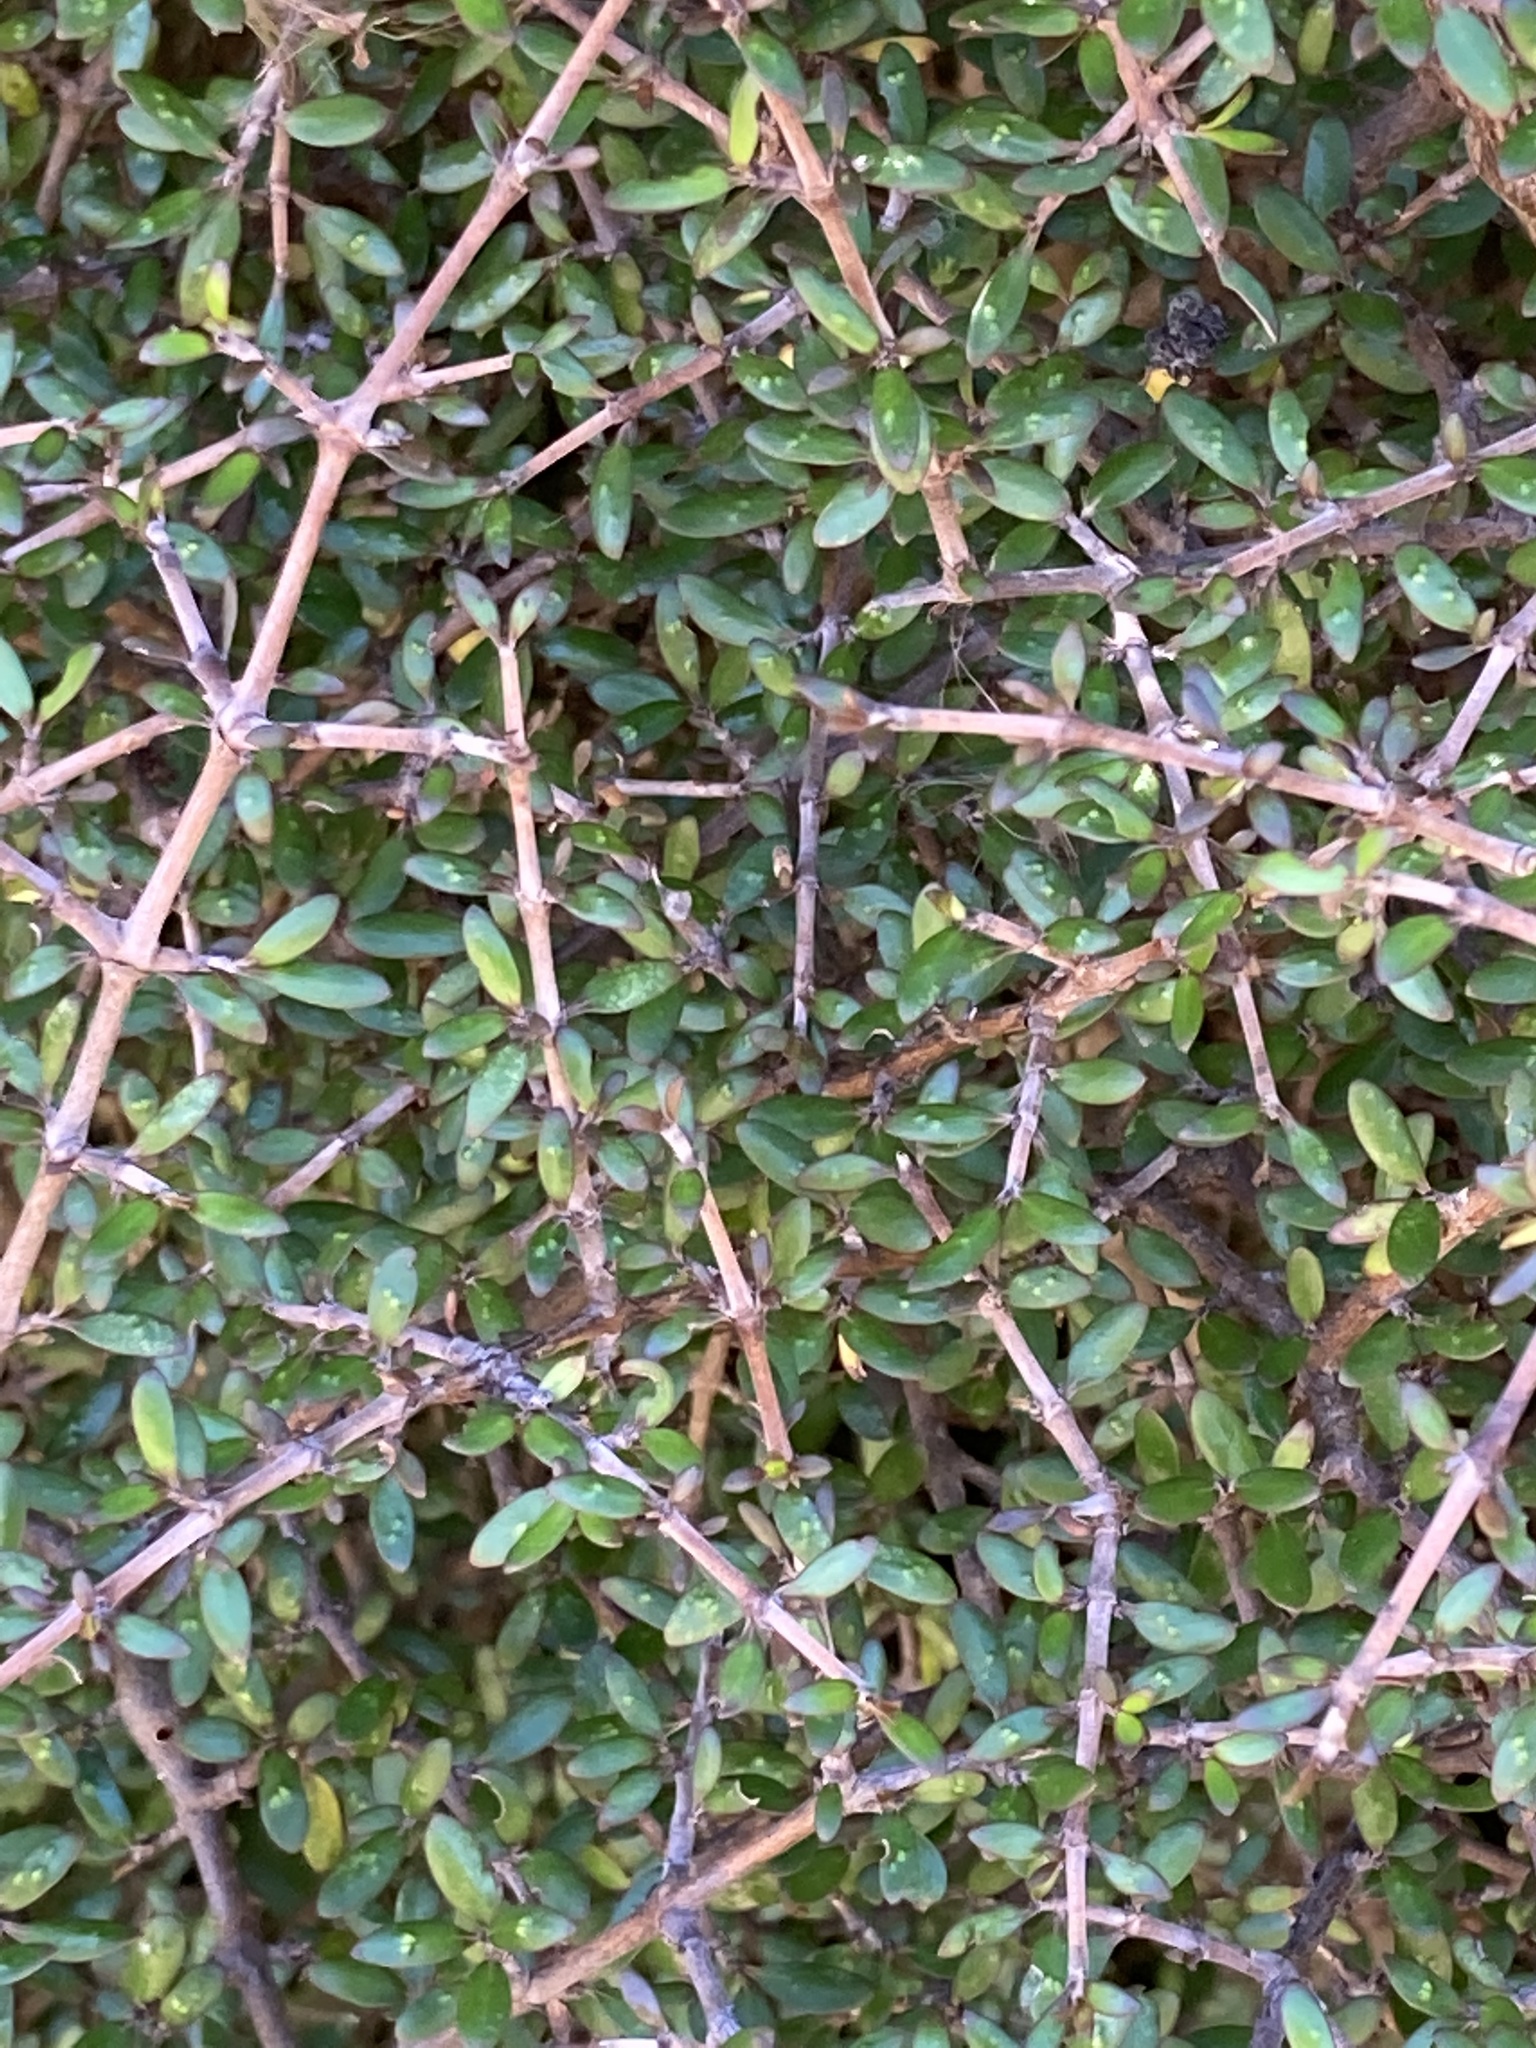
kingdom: Plantae
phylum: Tracheophyta
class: Magnoliopsida
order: Gentianales
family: Rubiaceae
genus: Coprosma
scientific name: Coprosma propinqua
